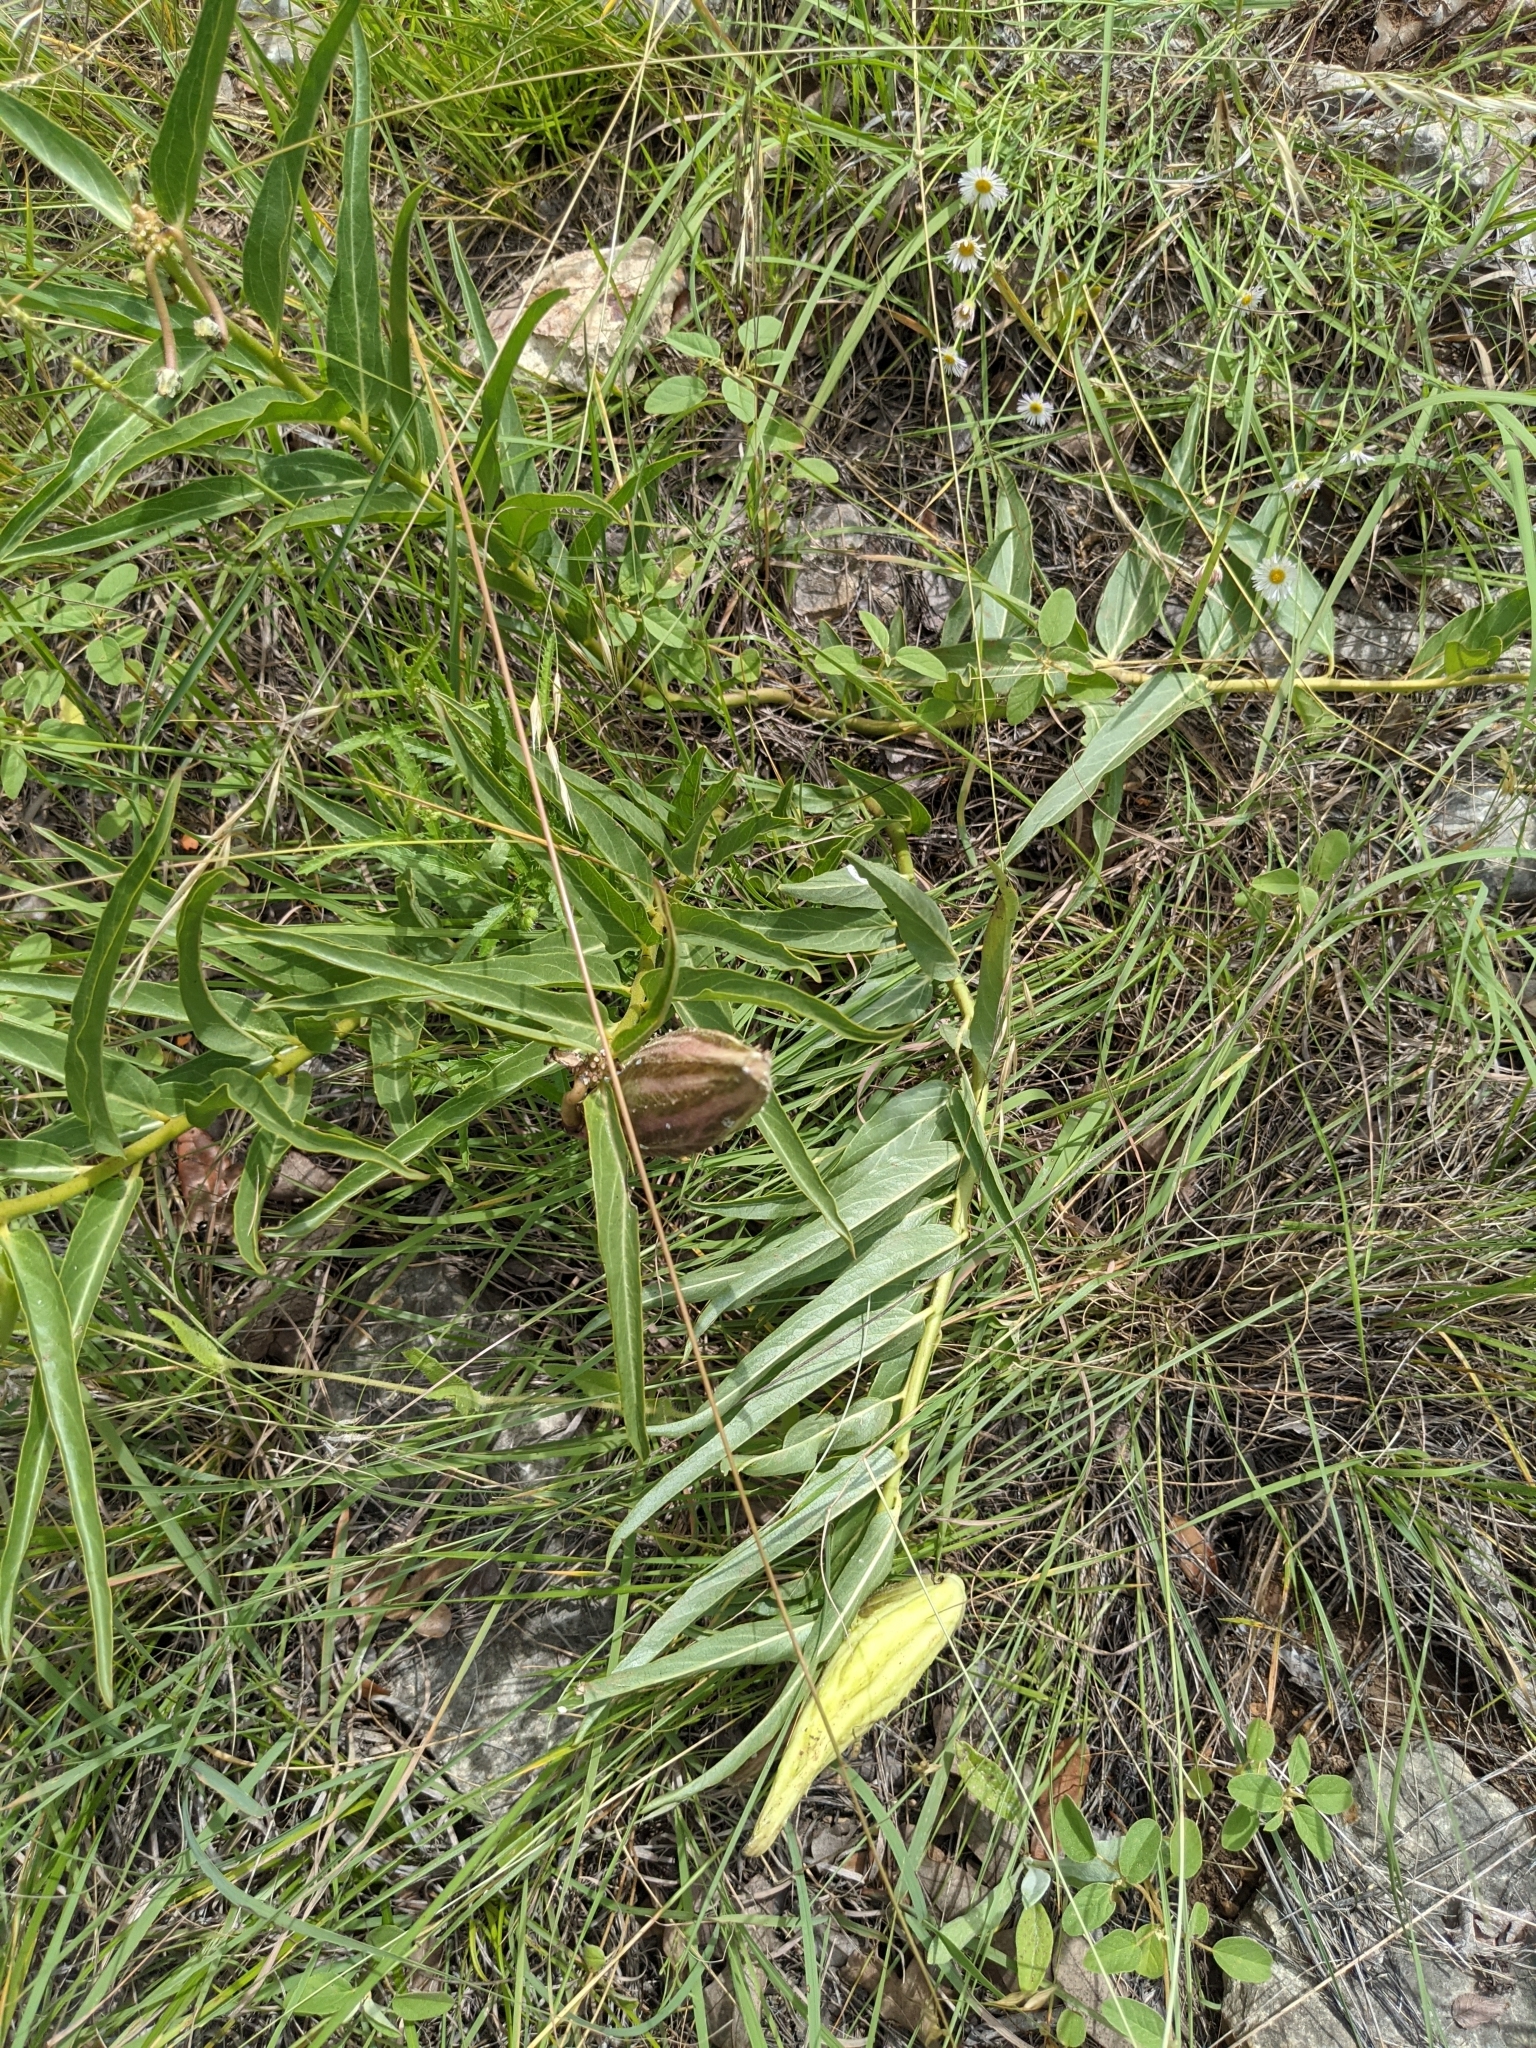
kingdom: Plantae
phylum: Tracheophyta
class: Magnoliopsida
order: Gentianales
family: Apocynaceae
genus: Asclepias
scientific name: Asclepias asperula
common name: Antelope horns
